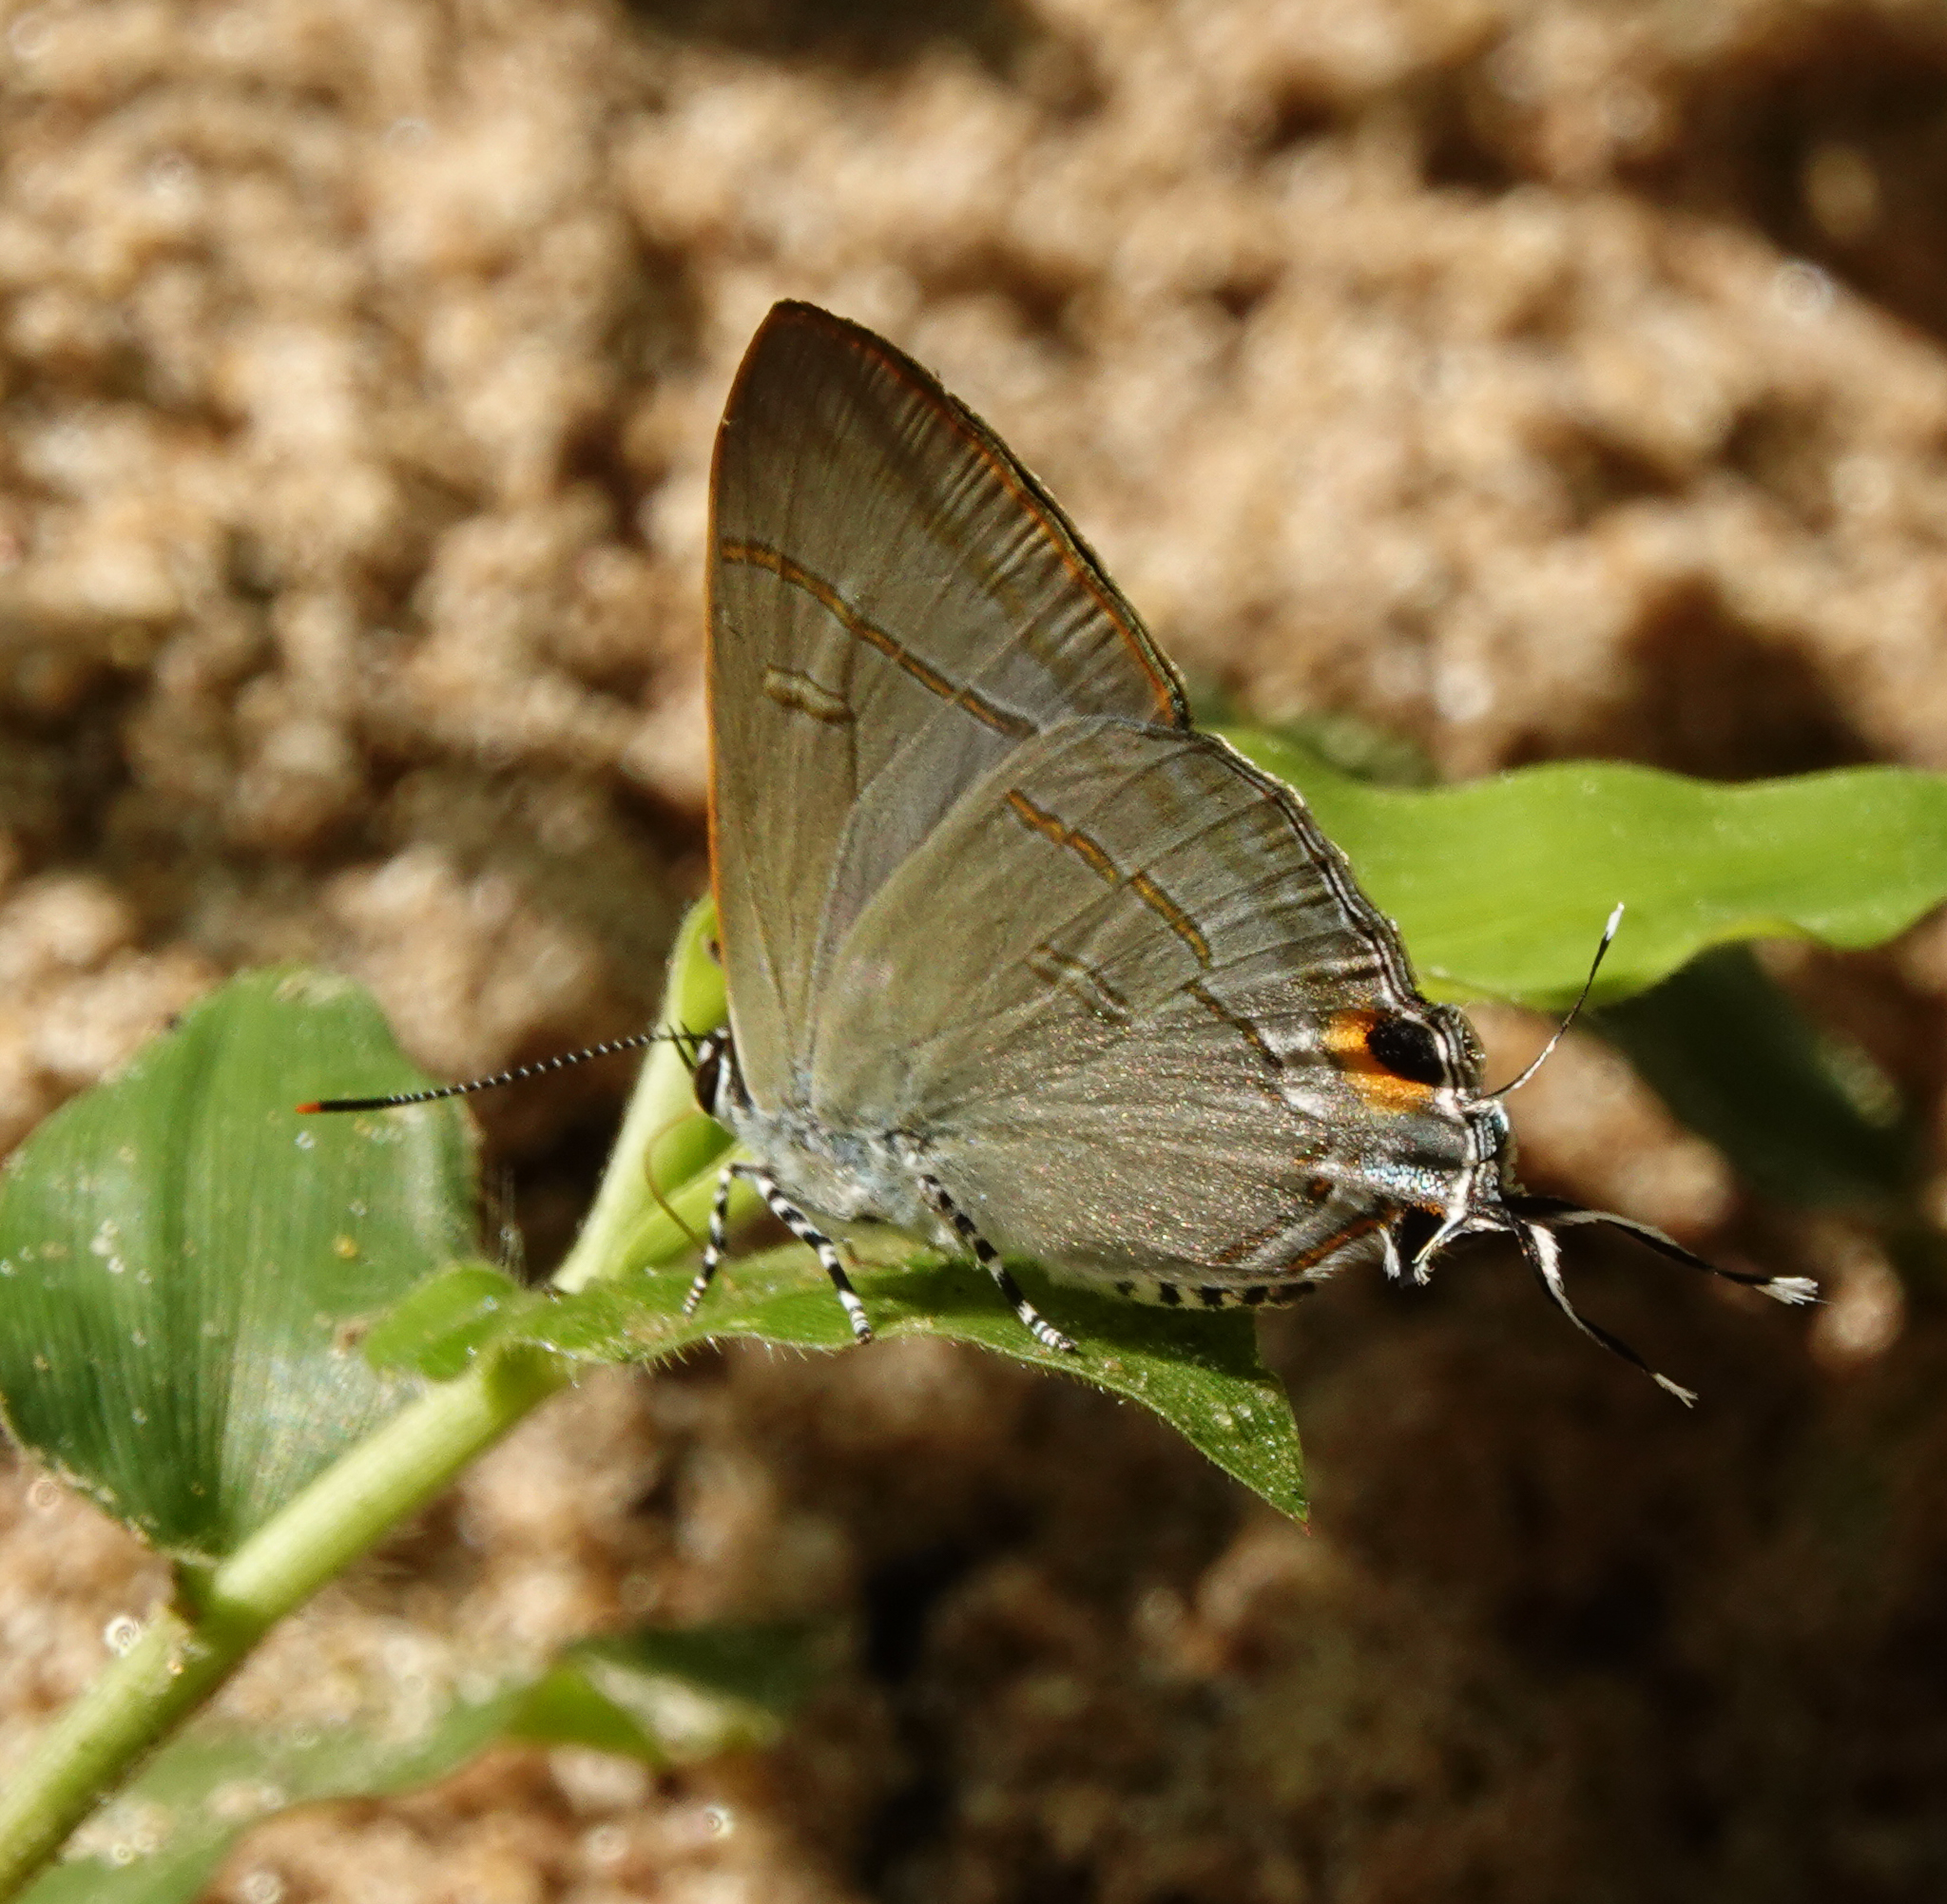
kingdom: Animalia
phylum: Arthropoda
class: Insecta
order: Lepidoptera
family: Lycaenidae
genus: Hypolycaena
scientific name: Hypolycaena erylus
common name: Common tit
